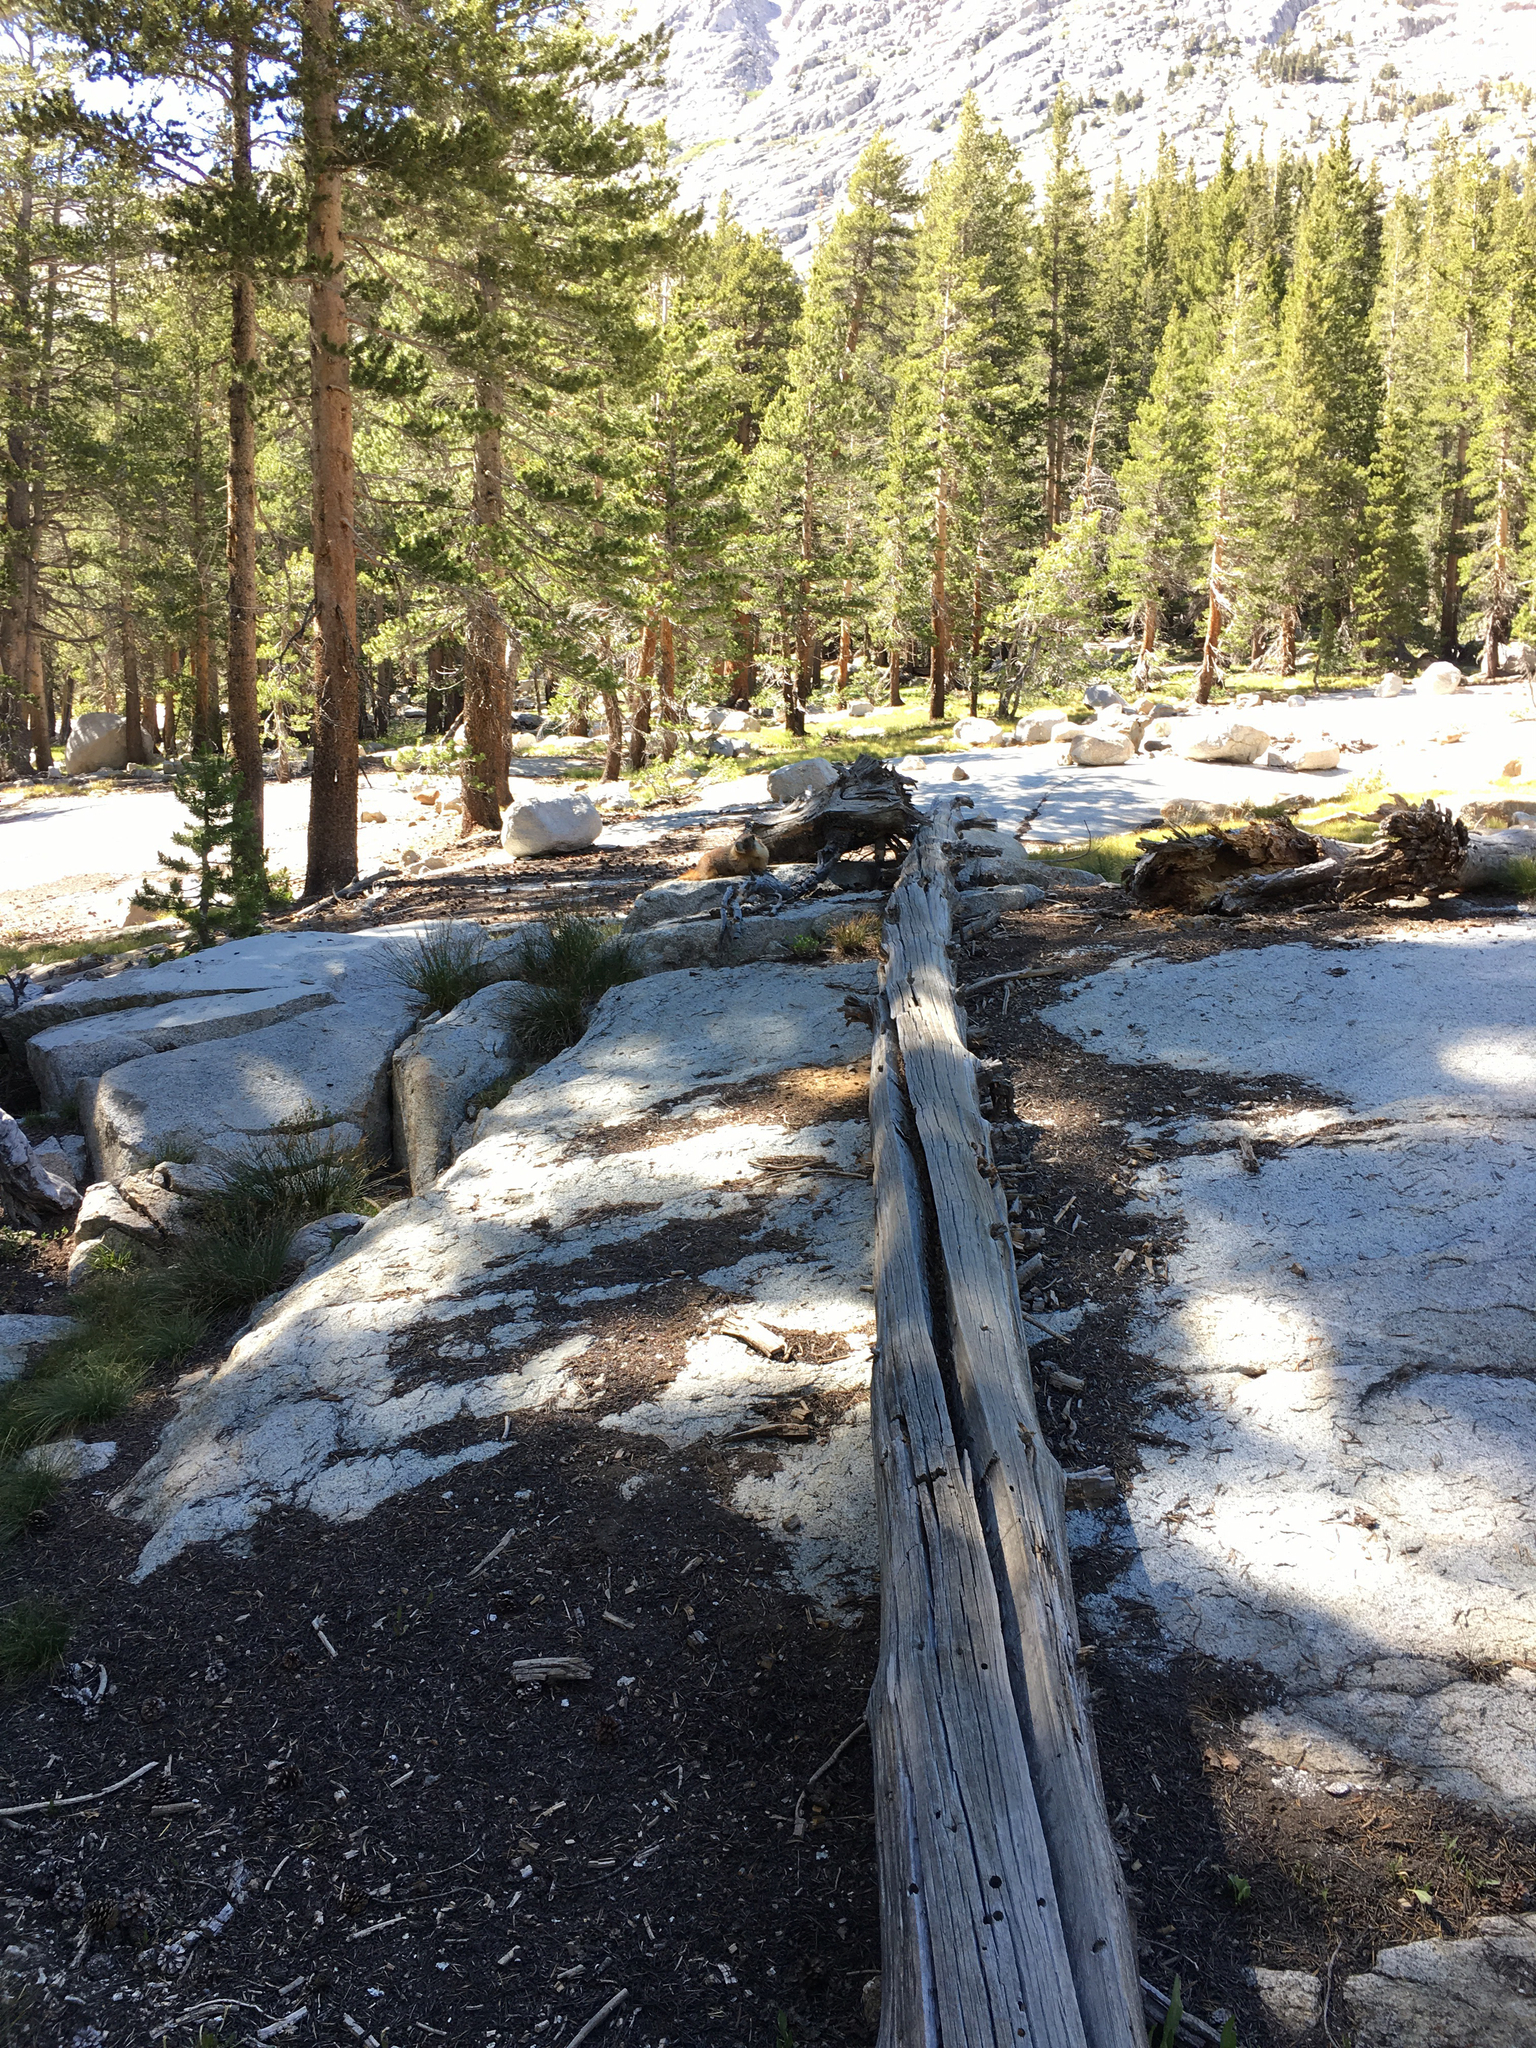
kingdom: Animalia
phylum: Chordata
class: Mammalia
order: Rodentia
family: Sciuridae
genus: Marmota
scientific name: Marmota flaviventris
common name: Yellow-bellied marmot
